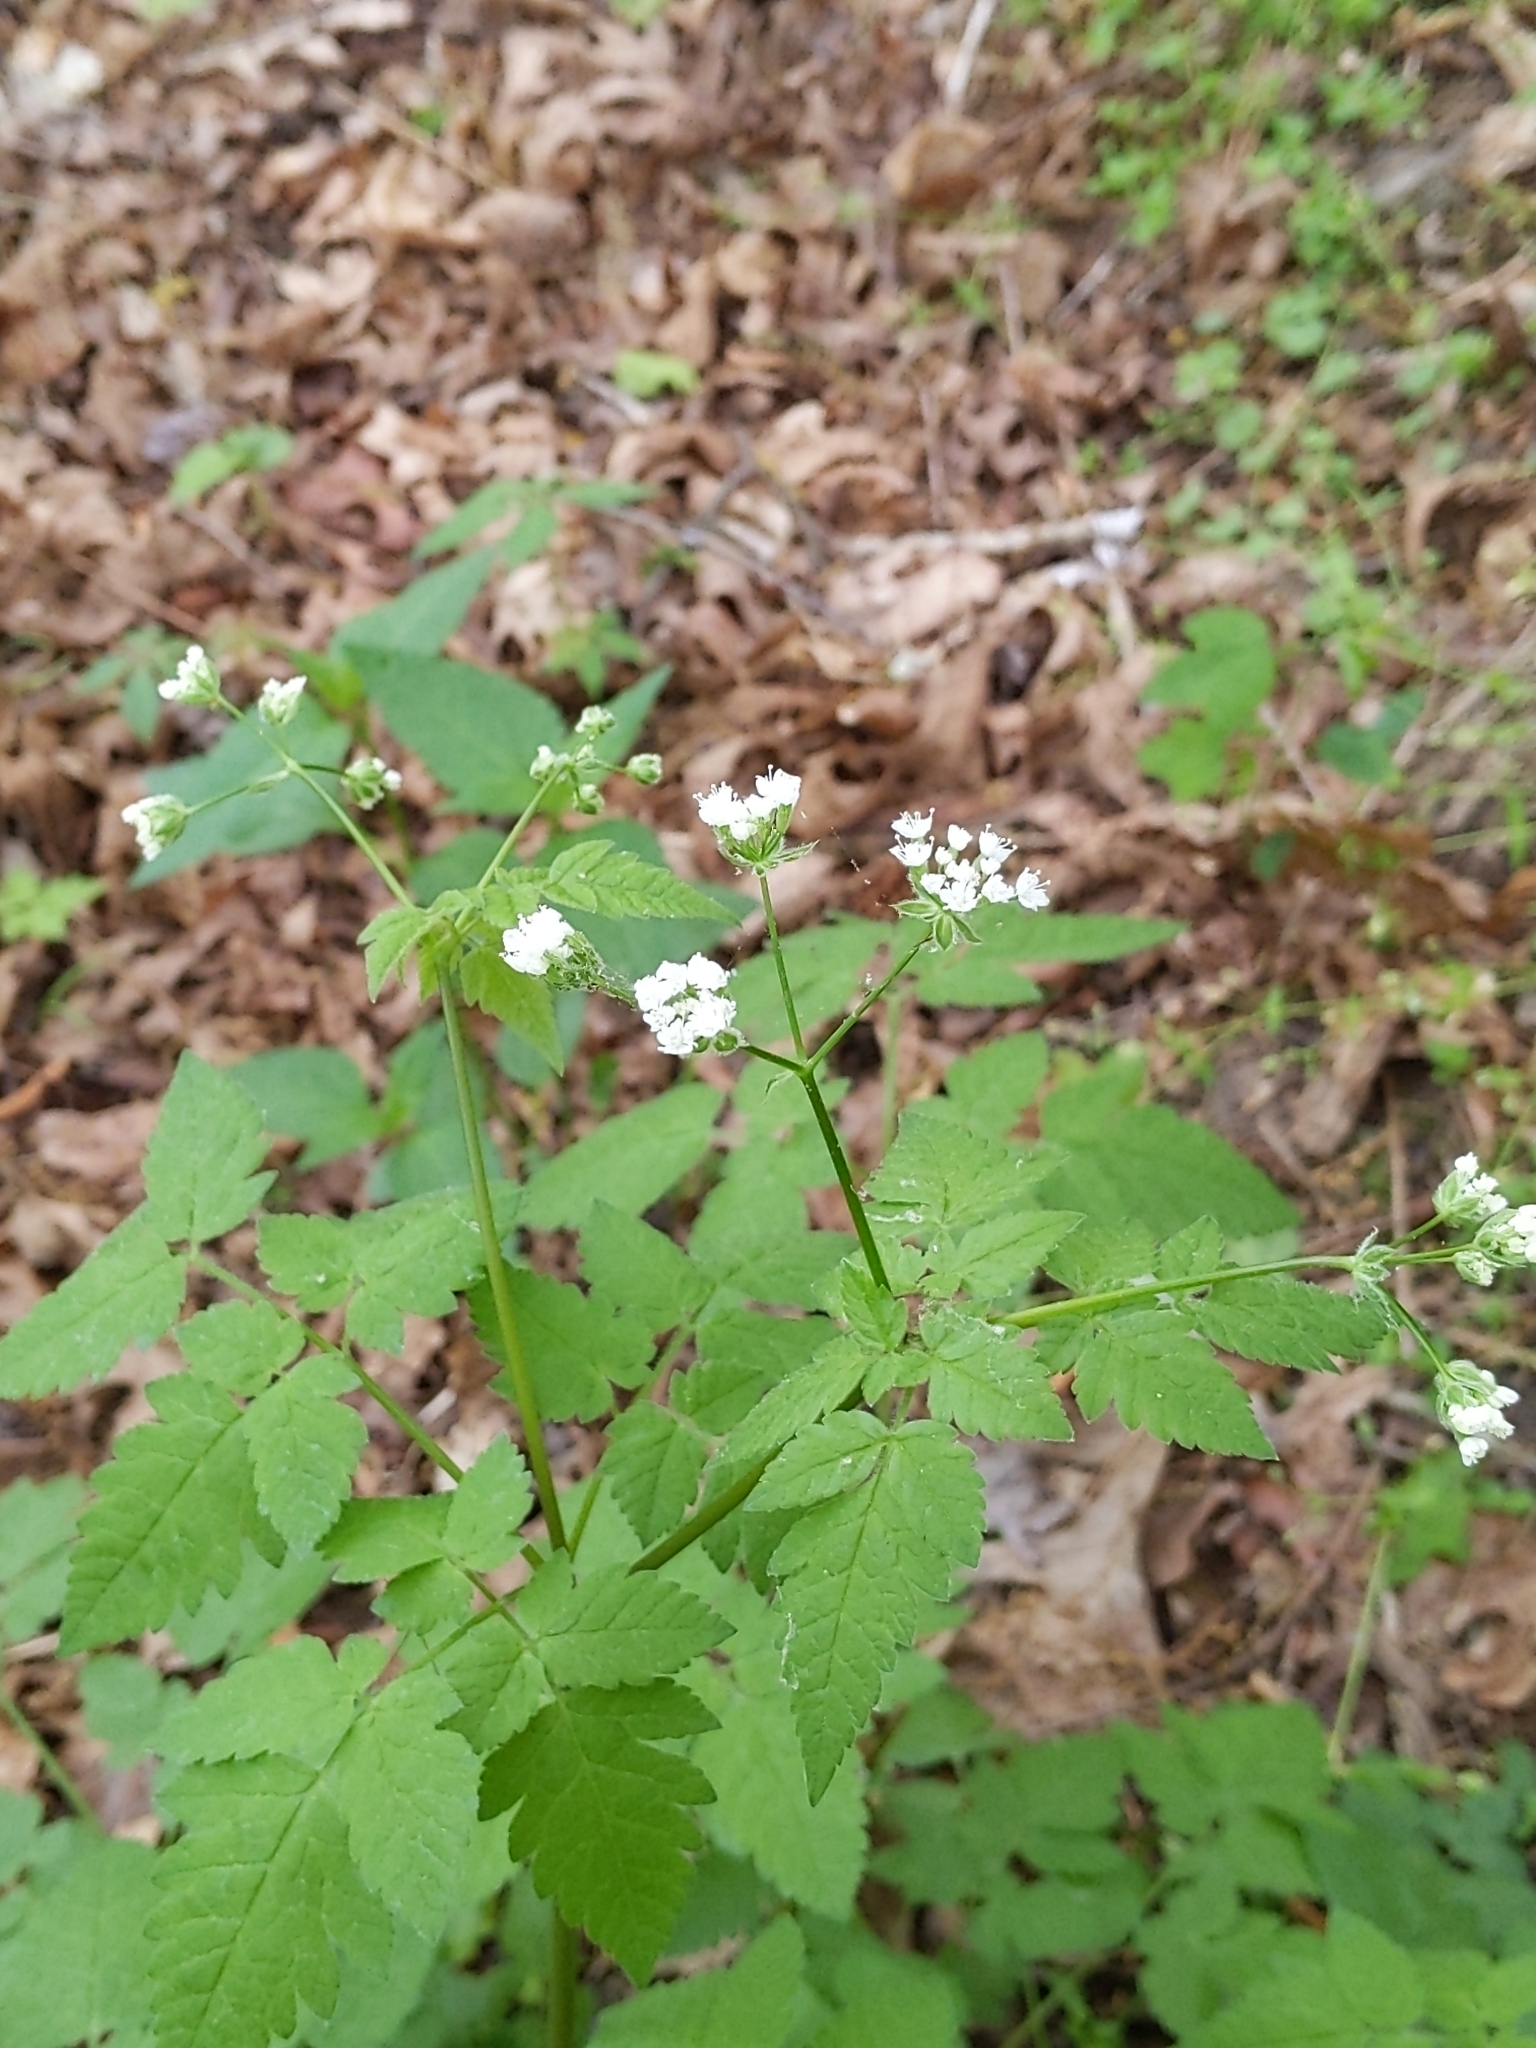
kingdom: Plantae
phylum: Tracheophyta
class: Magnoliopsida
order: Apiales
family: Apiaceae
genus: Osmorhiza
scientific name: Osmorhiza longistylis
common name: Smooth sweet cicely
